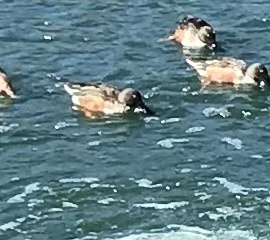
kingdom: Animalia
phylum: Chordata
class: Aves
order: Anseriformes
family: Anatidae
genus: Spatula
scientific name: Spatula clypeata
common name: Northern shoveler
